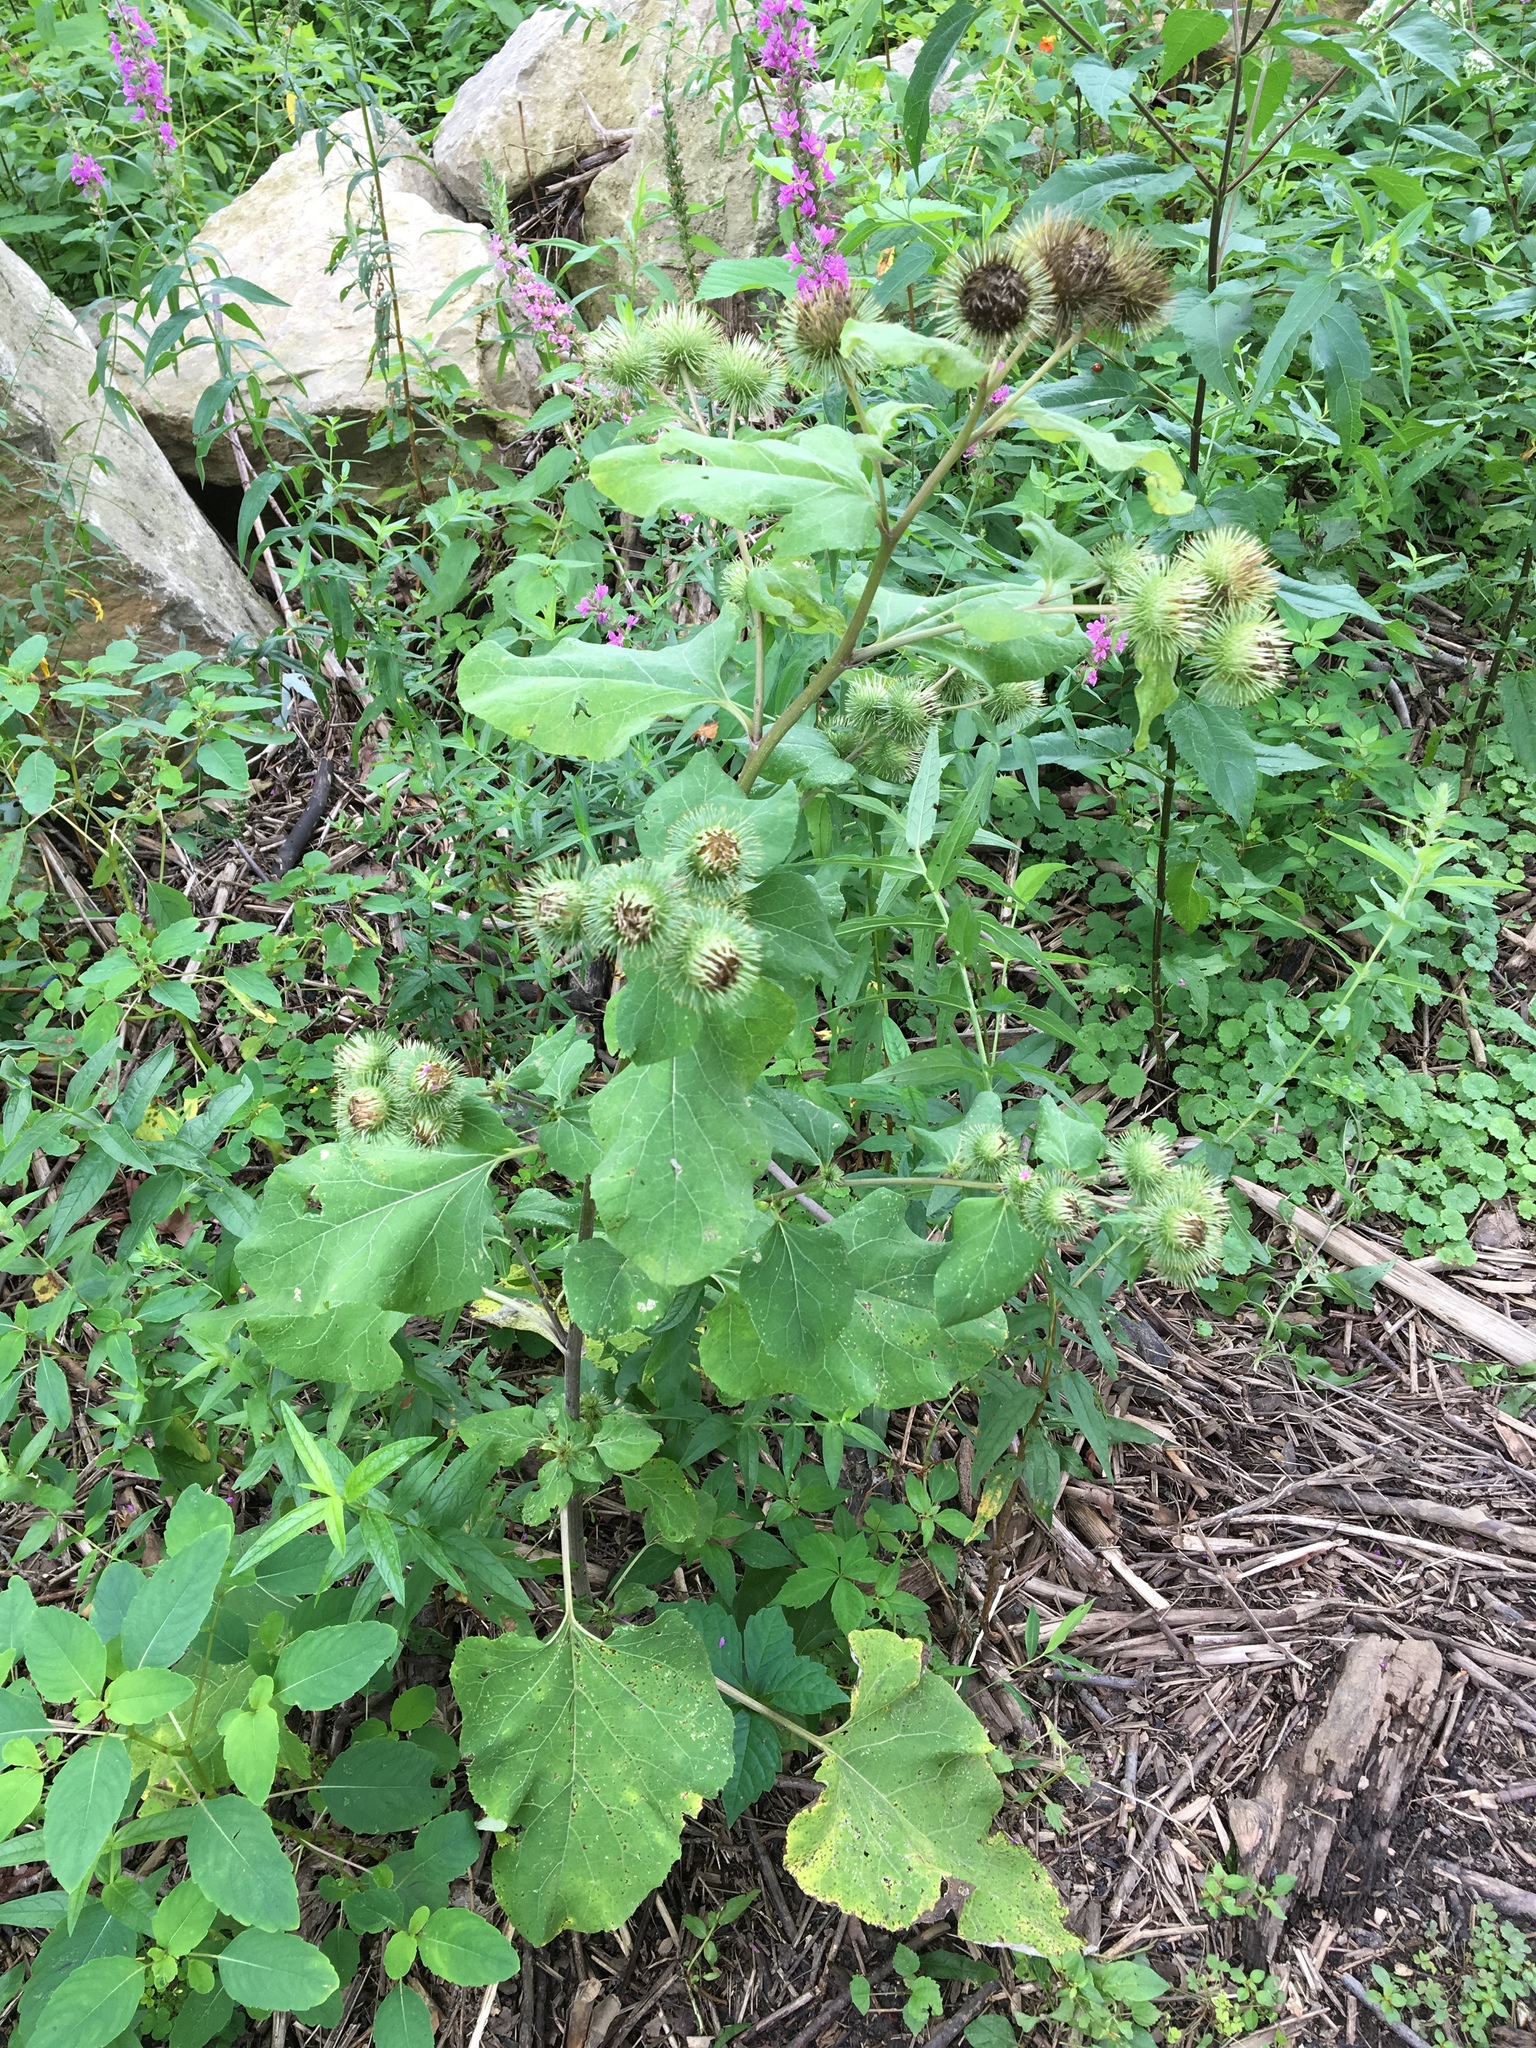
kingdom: Plantae
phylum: Tracheophyta
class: Magnoliopsida
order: Asterales
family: Asteraceae
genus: Arctium
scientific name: Arctium lappa
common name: Greater burdock
